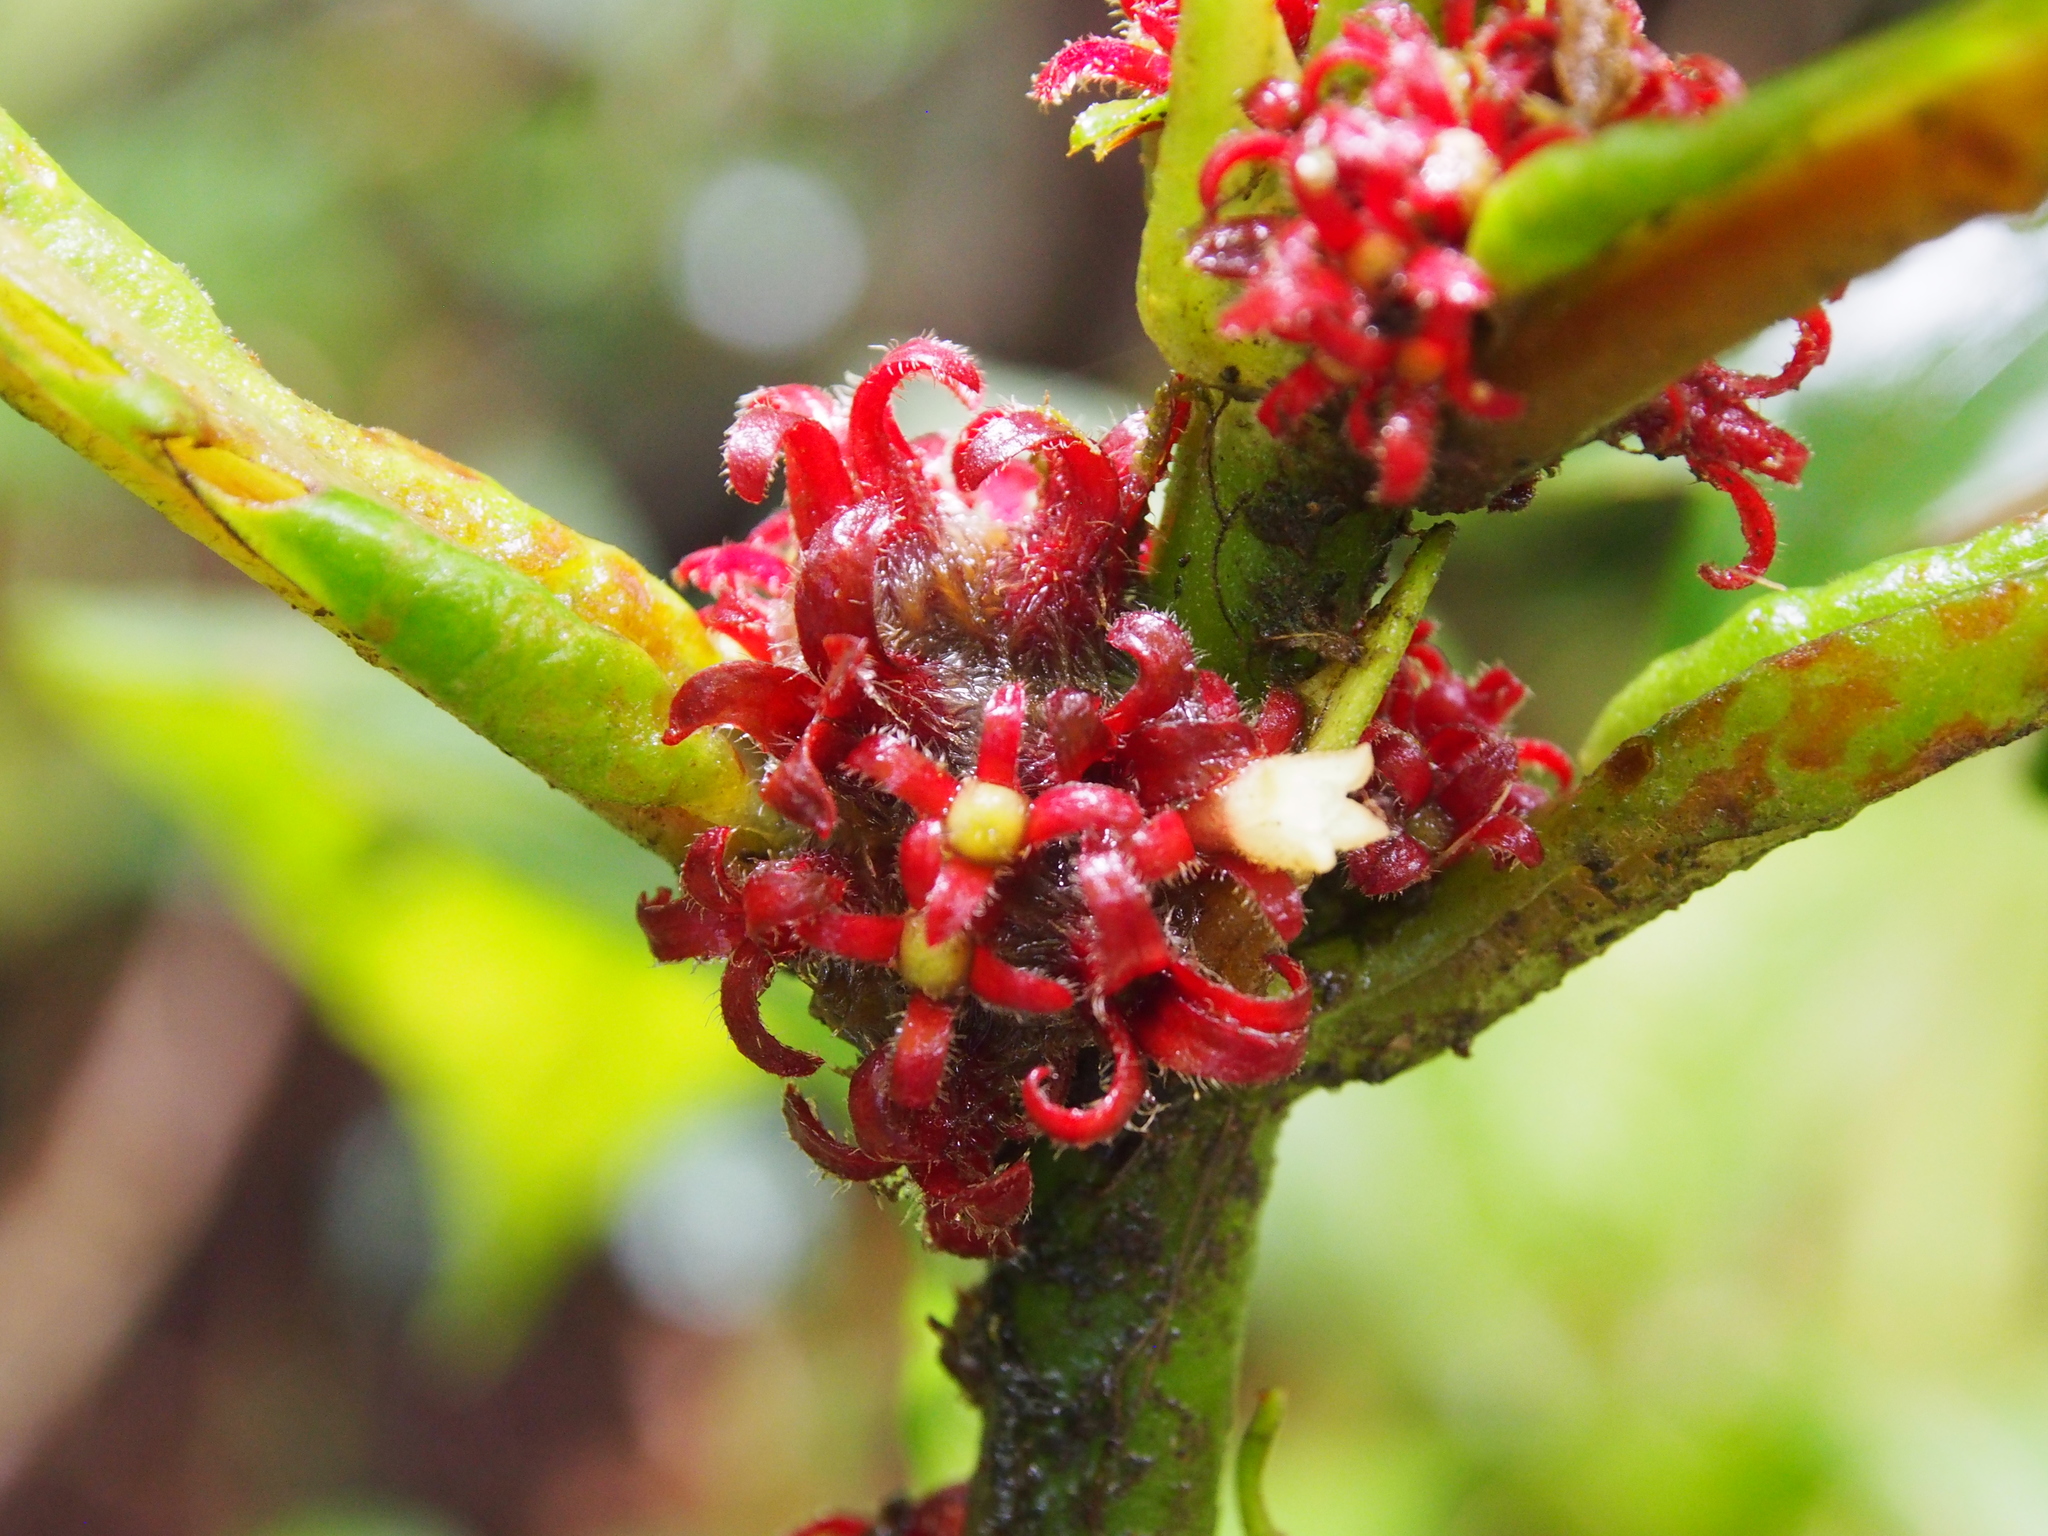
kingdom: Plantae
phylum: Tracheophyta
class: Magnoliopsida
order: Gentianales
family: Rubiaceae
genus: Hoffmannia
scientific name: Hoffmannia congesta
